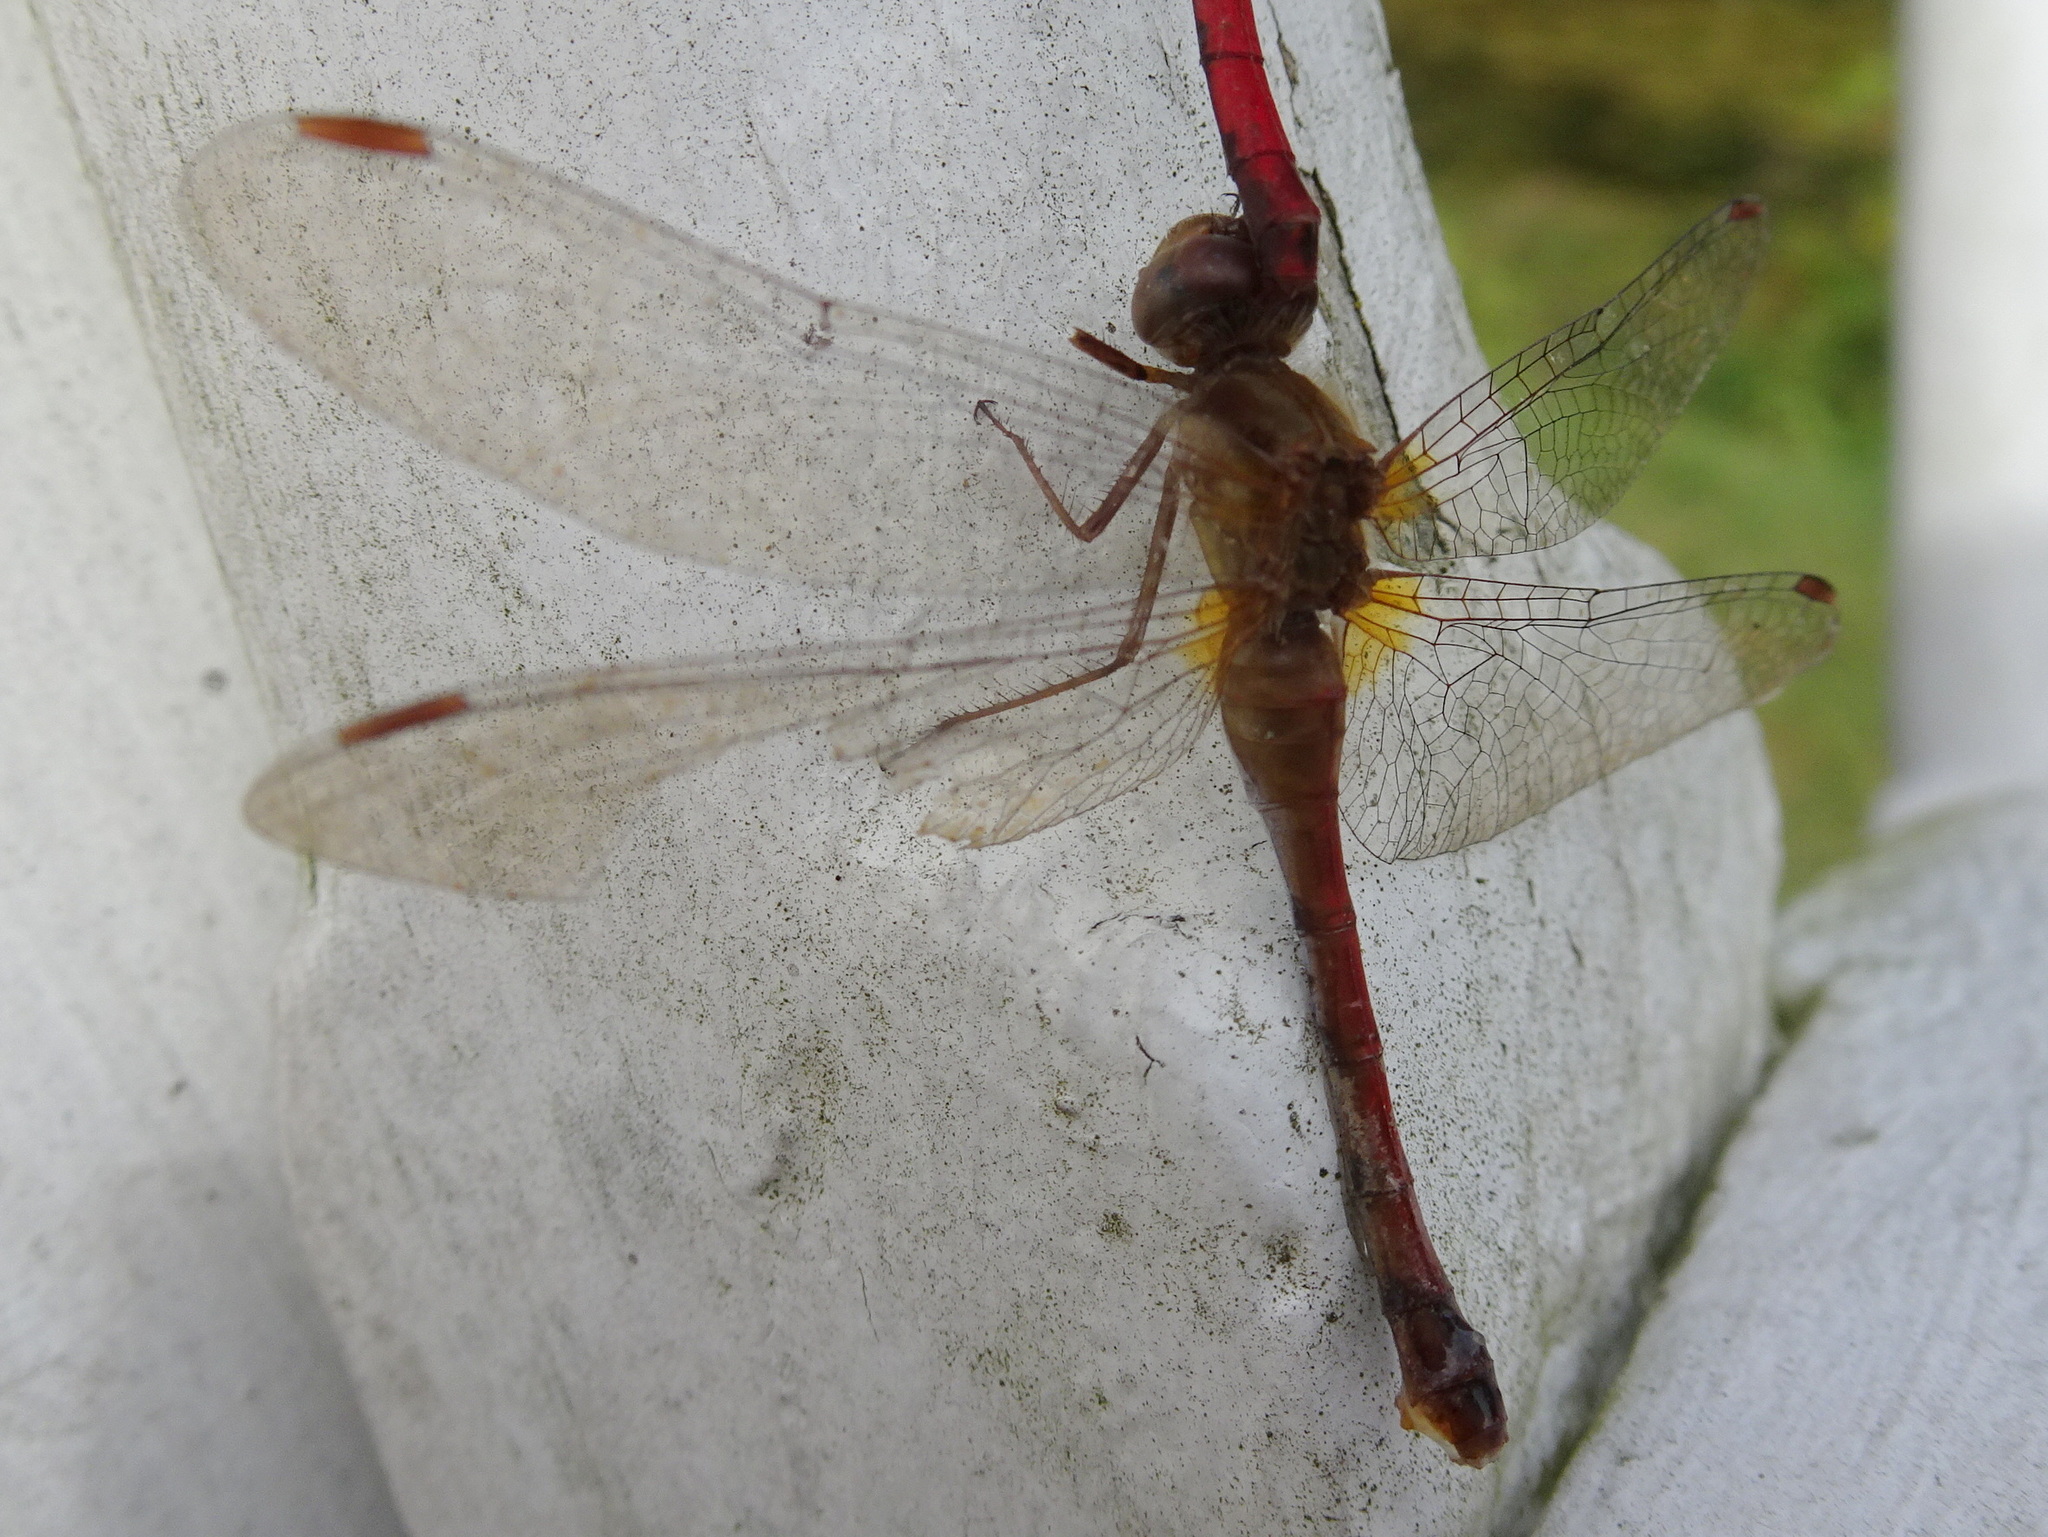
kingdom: Animalia
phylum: Arthropoda
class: Insecta
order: Odonata
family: Libellulidae
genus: Sympetrum
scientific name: Sympetrum vicinum
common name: Autumn meadowhawk
